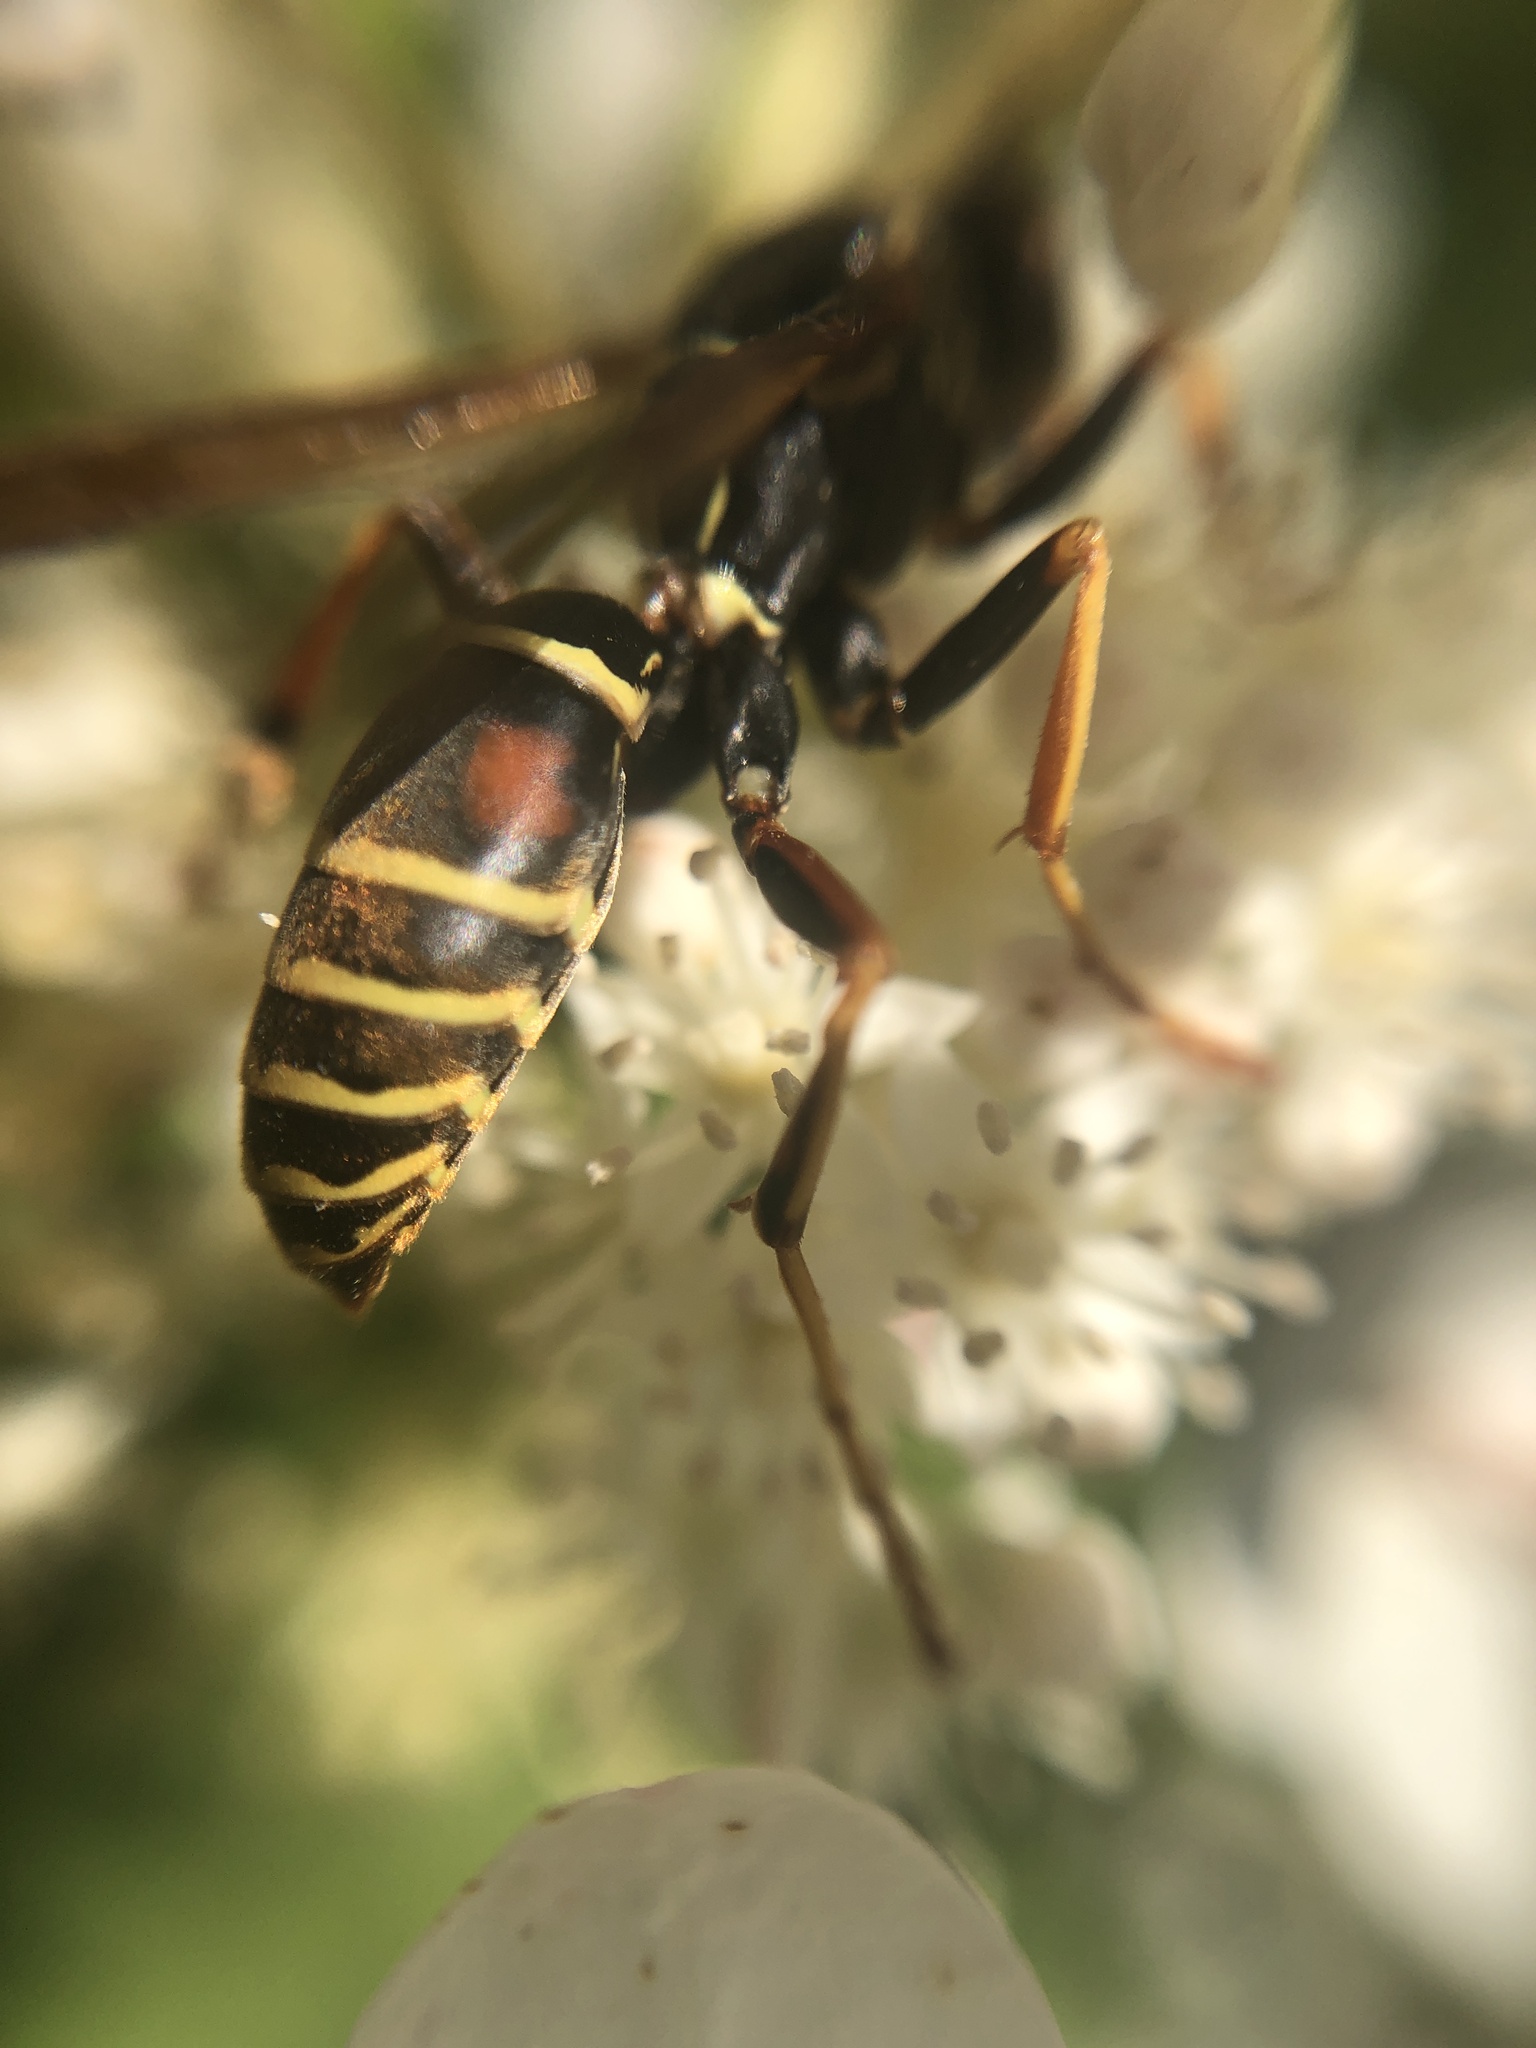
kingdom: Animalia
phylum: Arthropoda
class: Insecta
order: Hymenoptera
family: Eumenidae
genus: Polistes
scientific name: Polistes fuscatus
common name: Dark paper wasp
